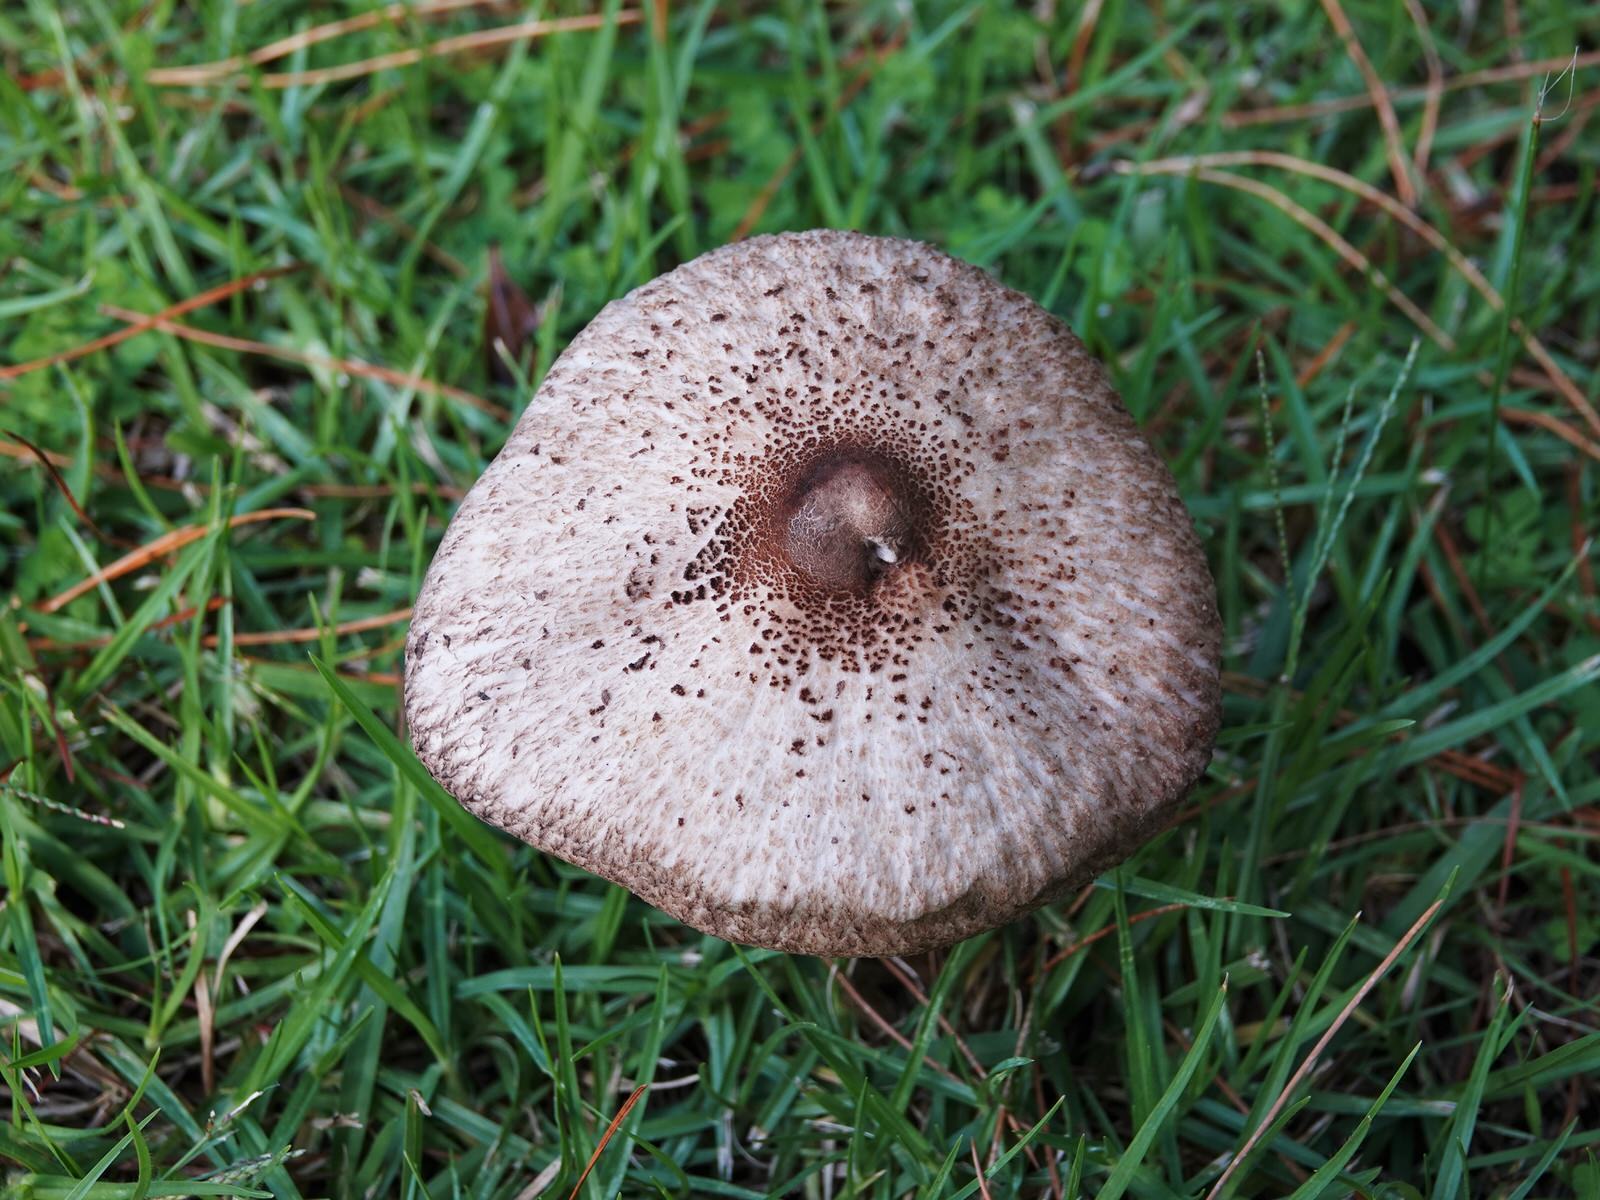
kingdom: Fungi
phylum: Basidiomycota
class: Agaricomycetes
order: Agaricales
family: Agaricaceae
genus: Macrolepiota
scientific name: Macrolepiota clelandii
